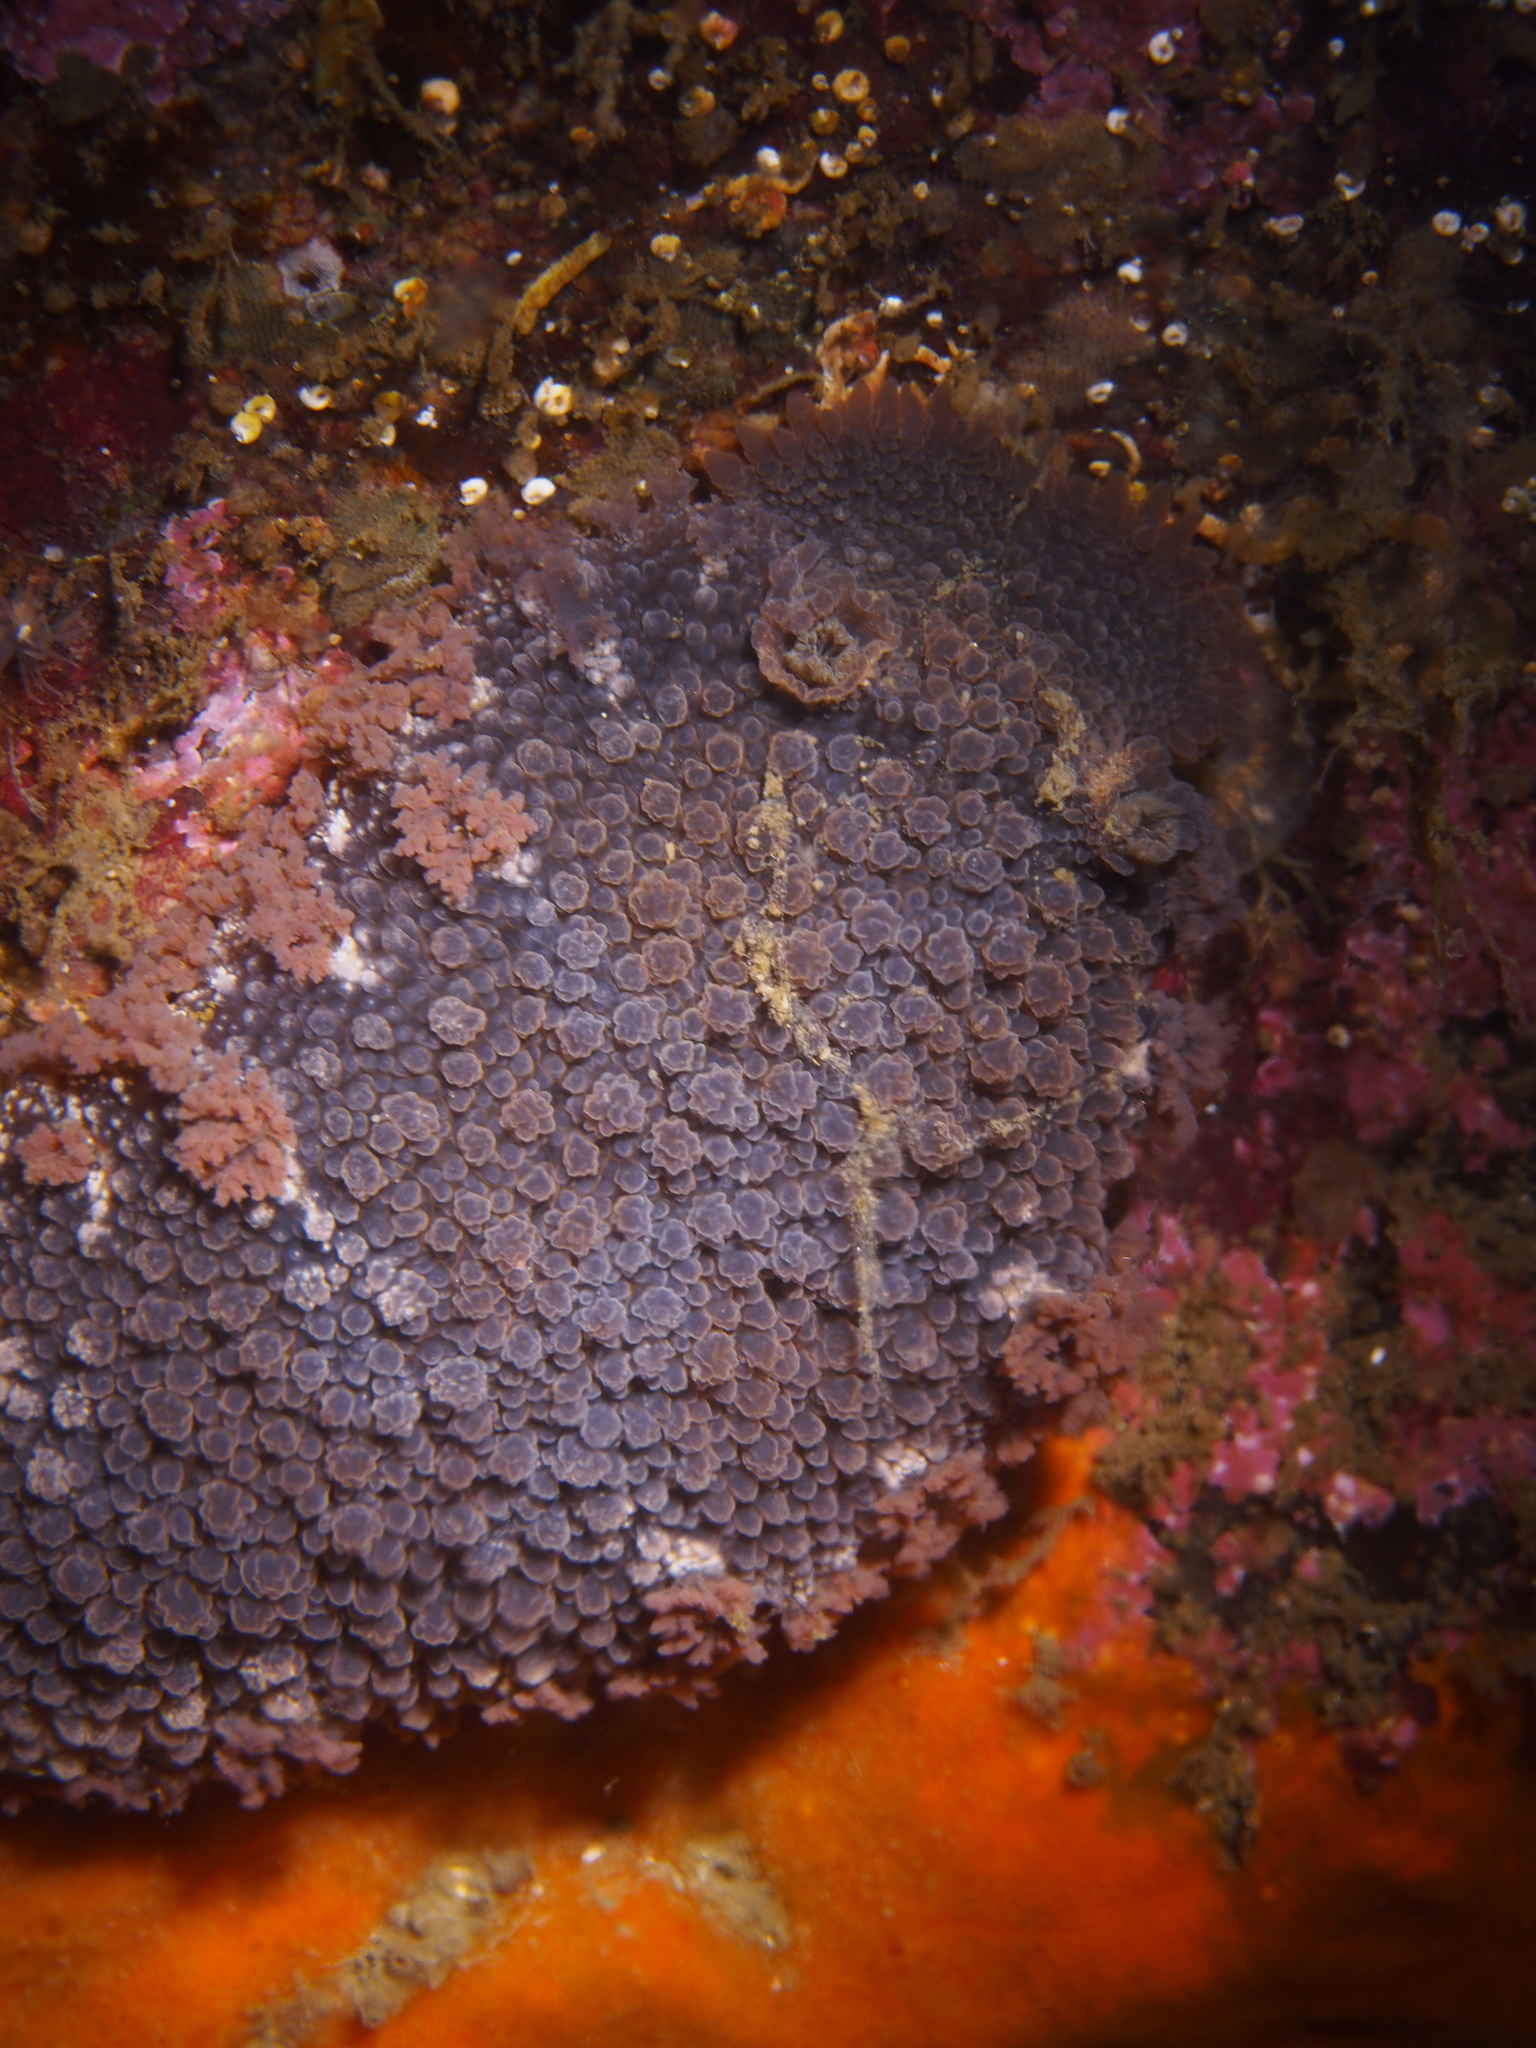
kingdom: Animalia
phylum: Mollusca
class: Gastropoda
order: Nudibranchia
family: Tritoniidae
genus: Tritonia
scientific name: Tritonia hombergii
